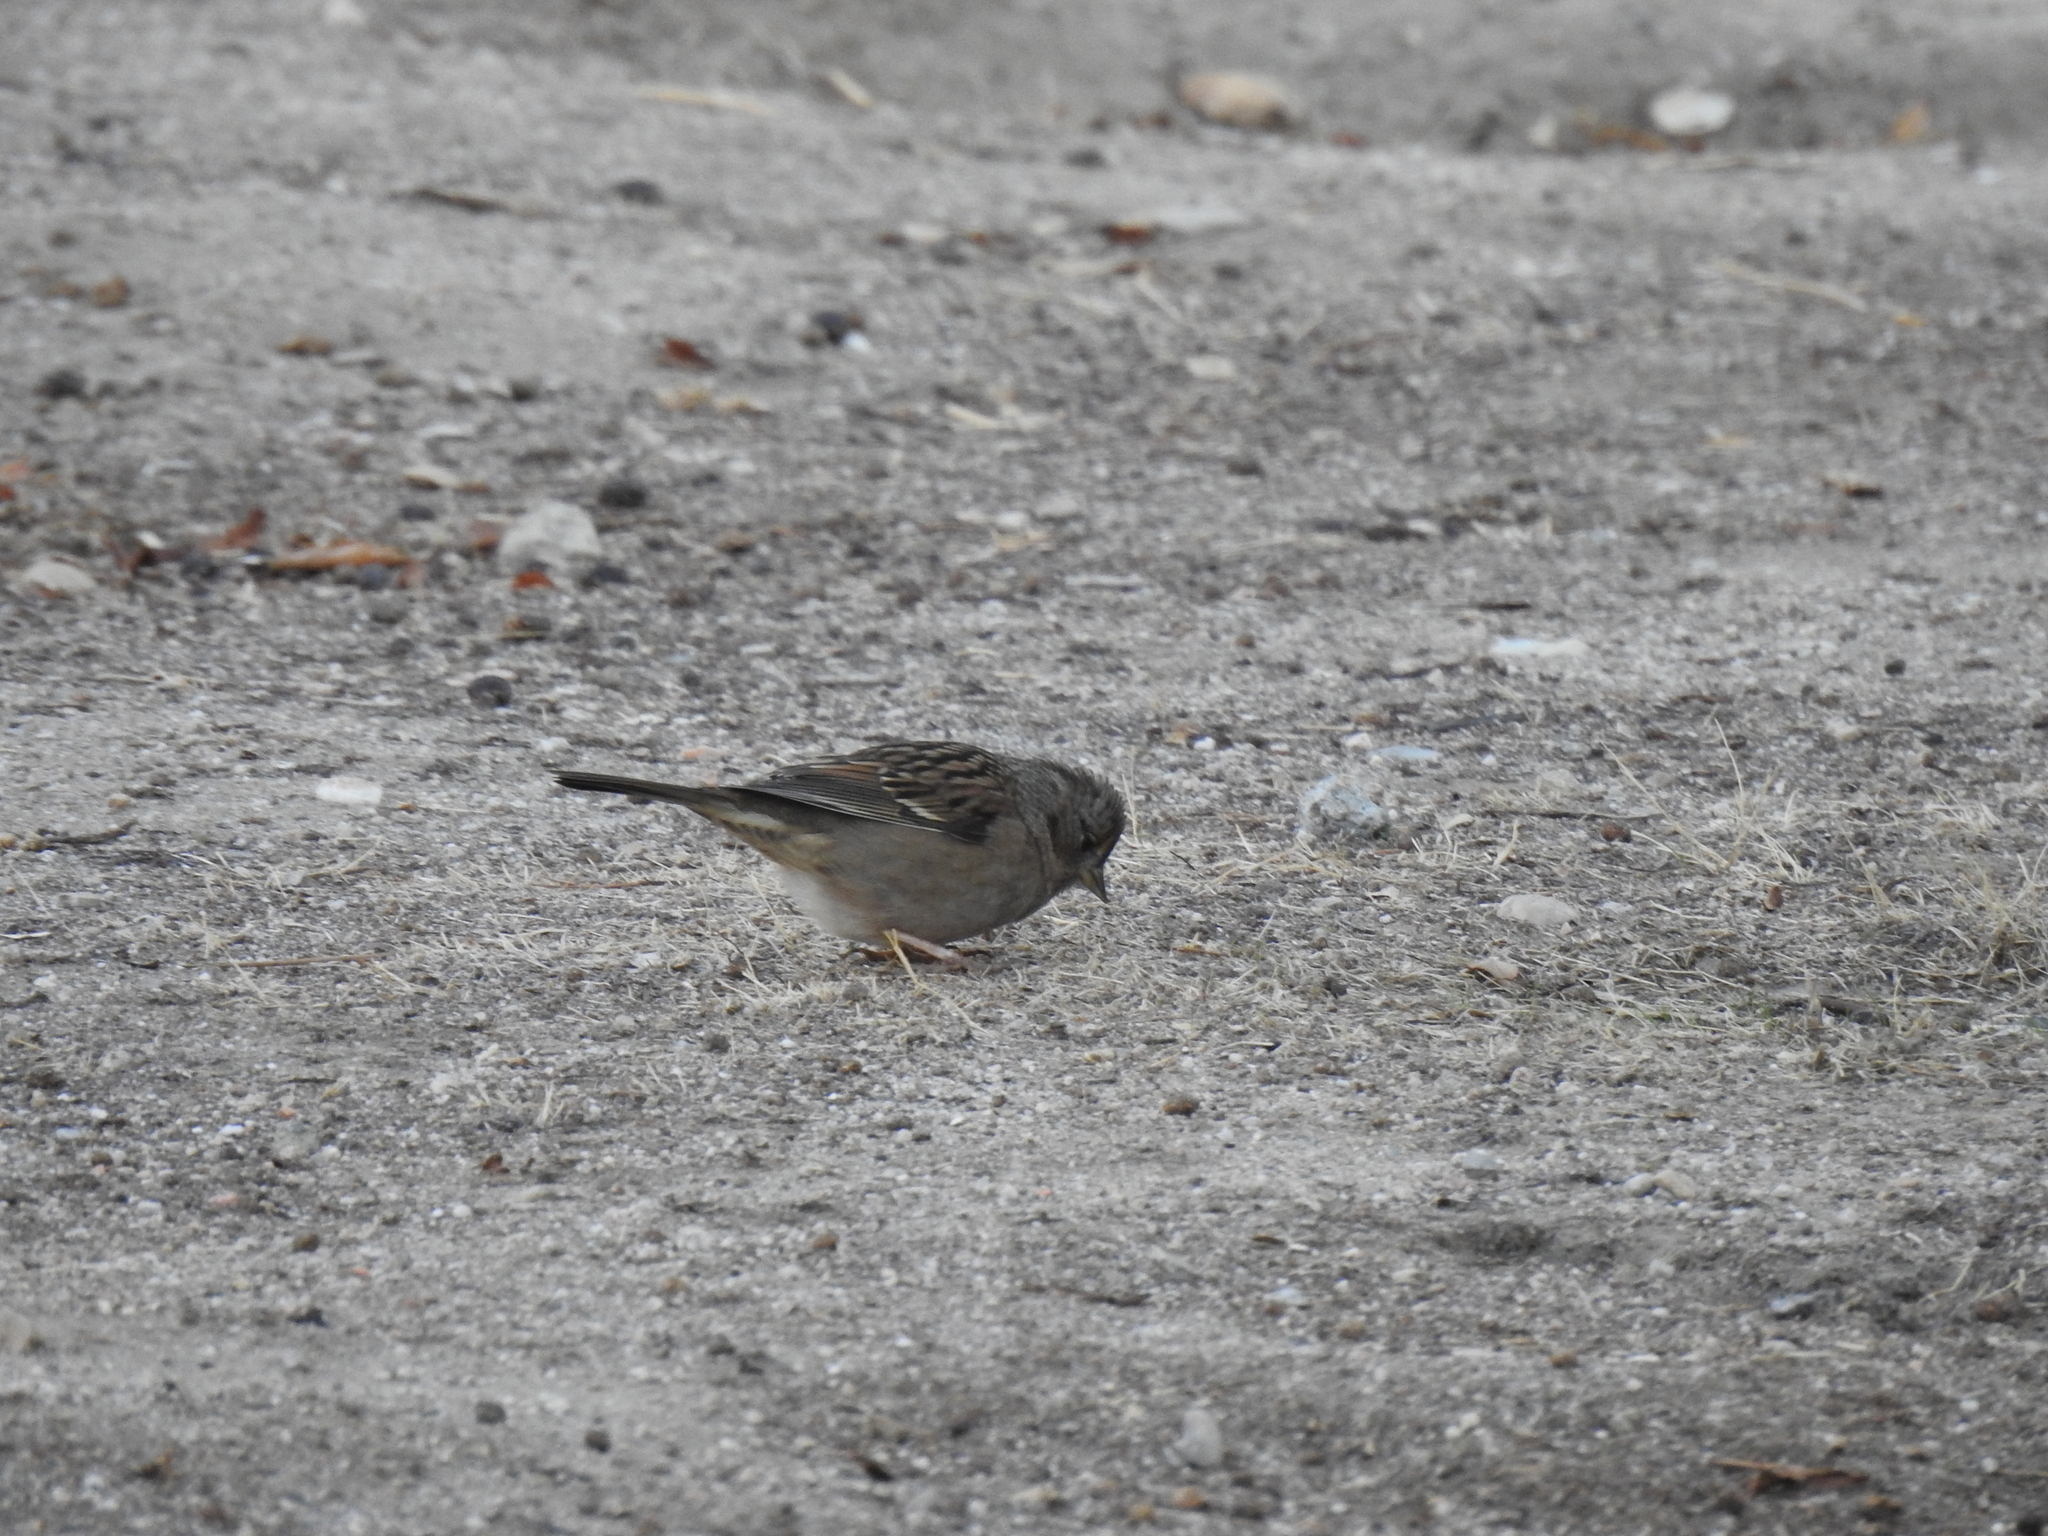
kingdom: Animalia
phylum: Chordata
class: Aves
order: Passeriformes
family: Passerellidae
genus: Zonotrichia
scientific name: Zonotrichia atricapilla
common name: Golden-crowned sparrow
